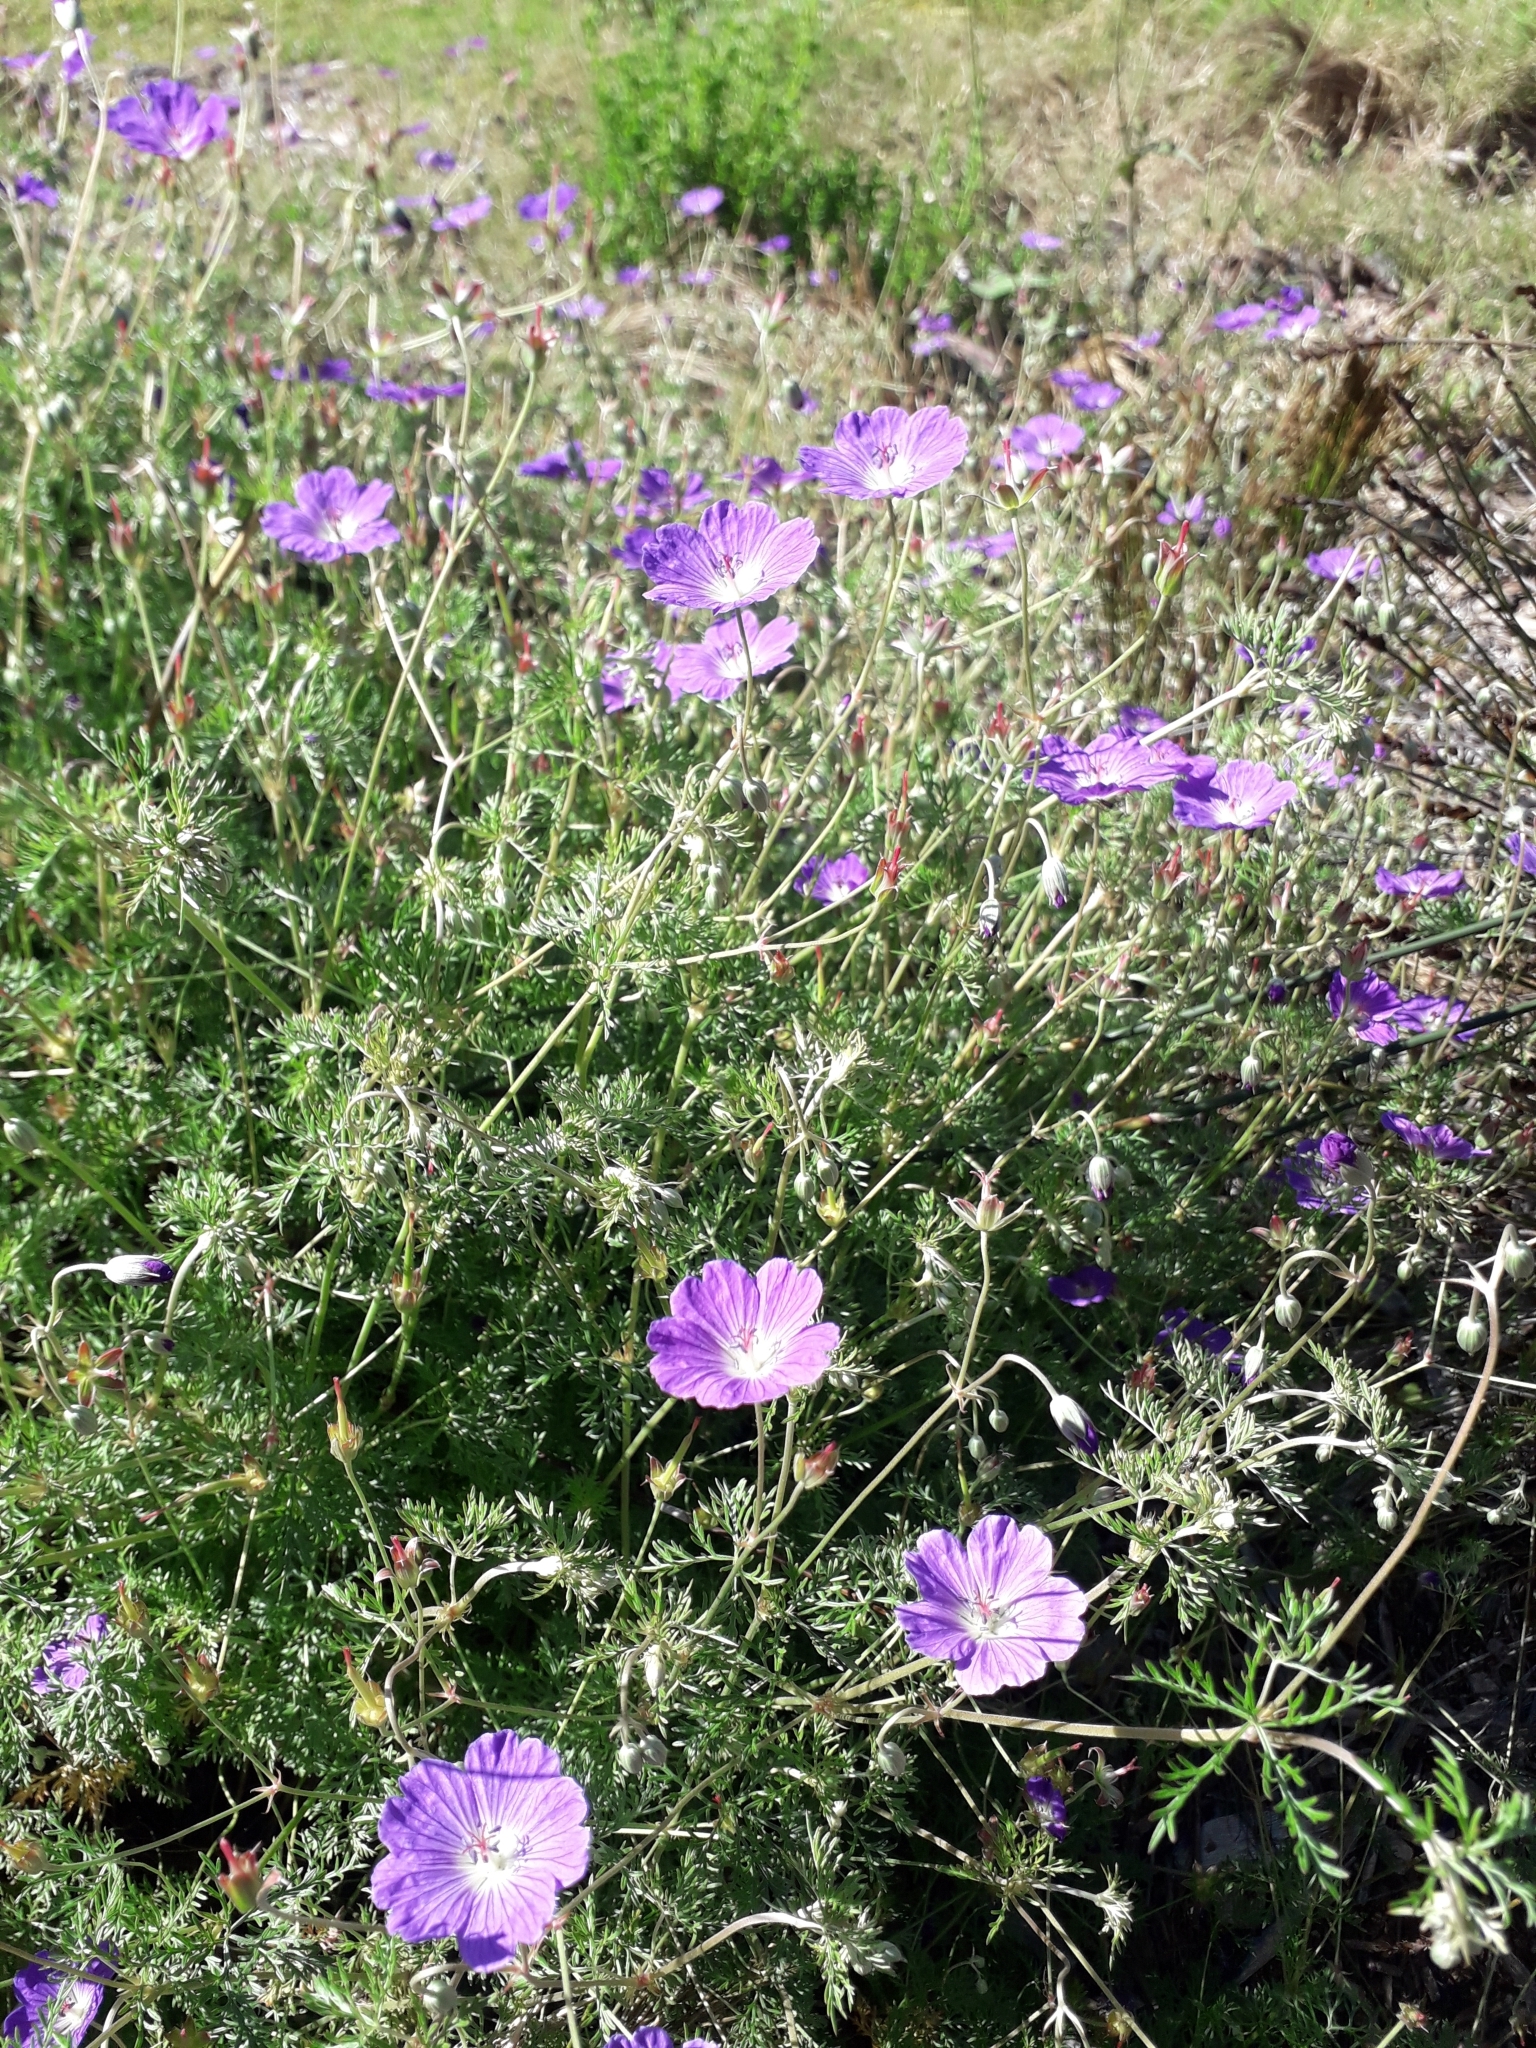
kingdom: Plantae
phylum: Tracheophyta
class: Magnoliopsida
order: Geraniales
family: Geraniaceae
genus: Geranium
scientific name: Geranium incanum
